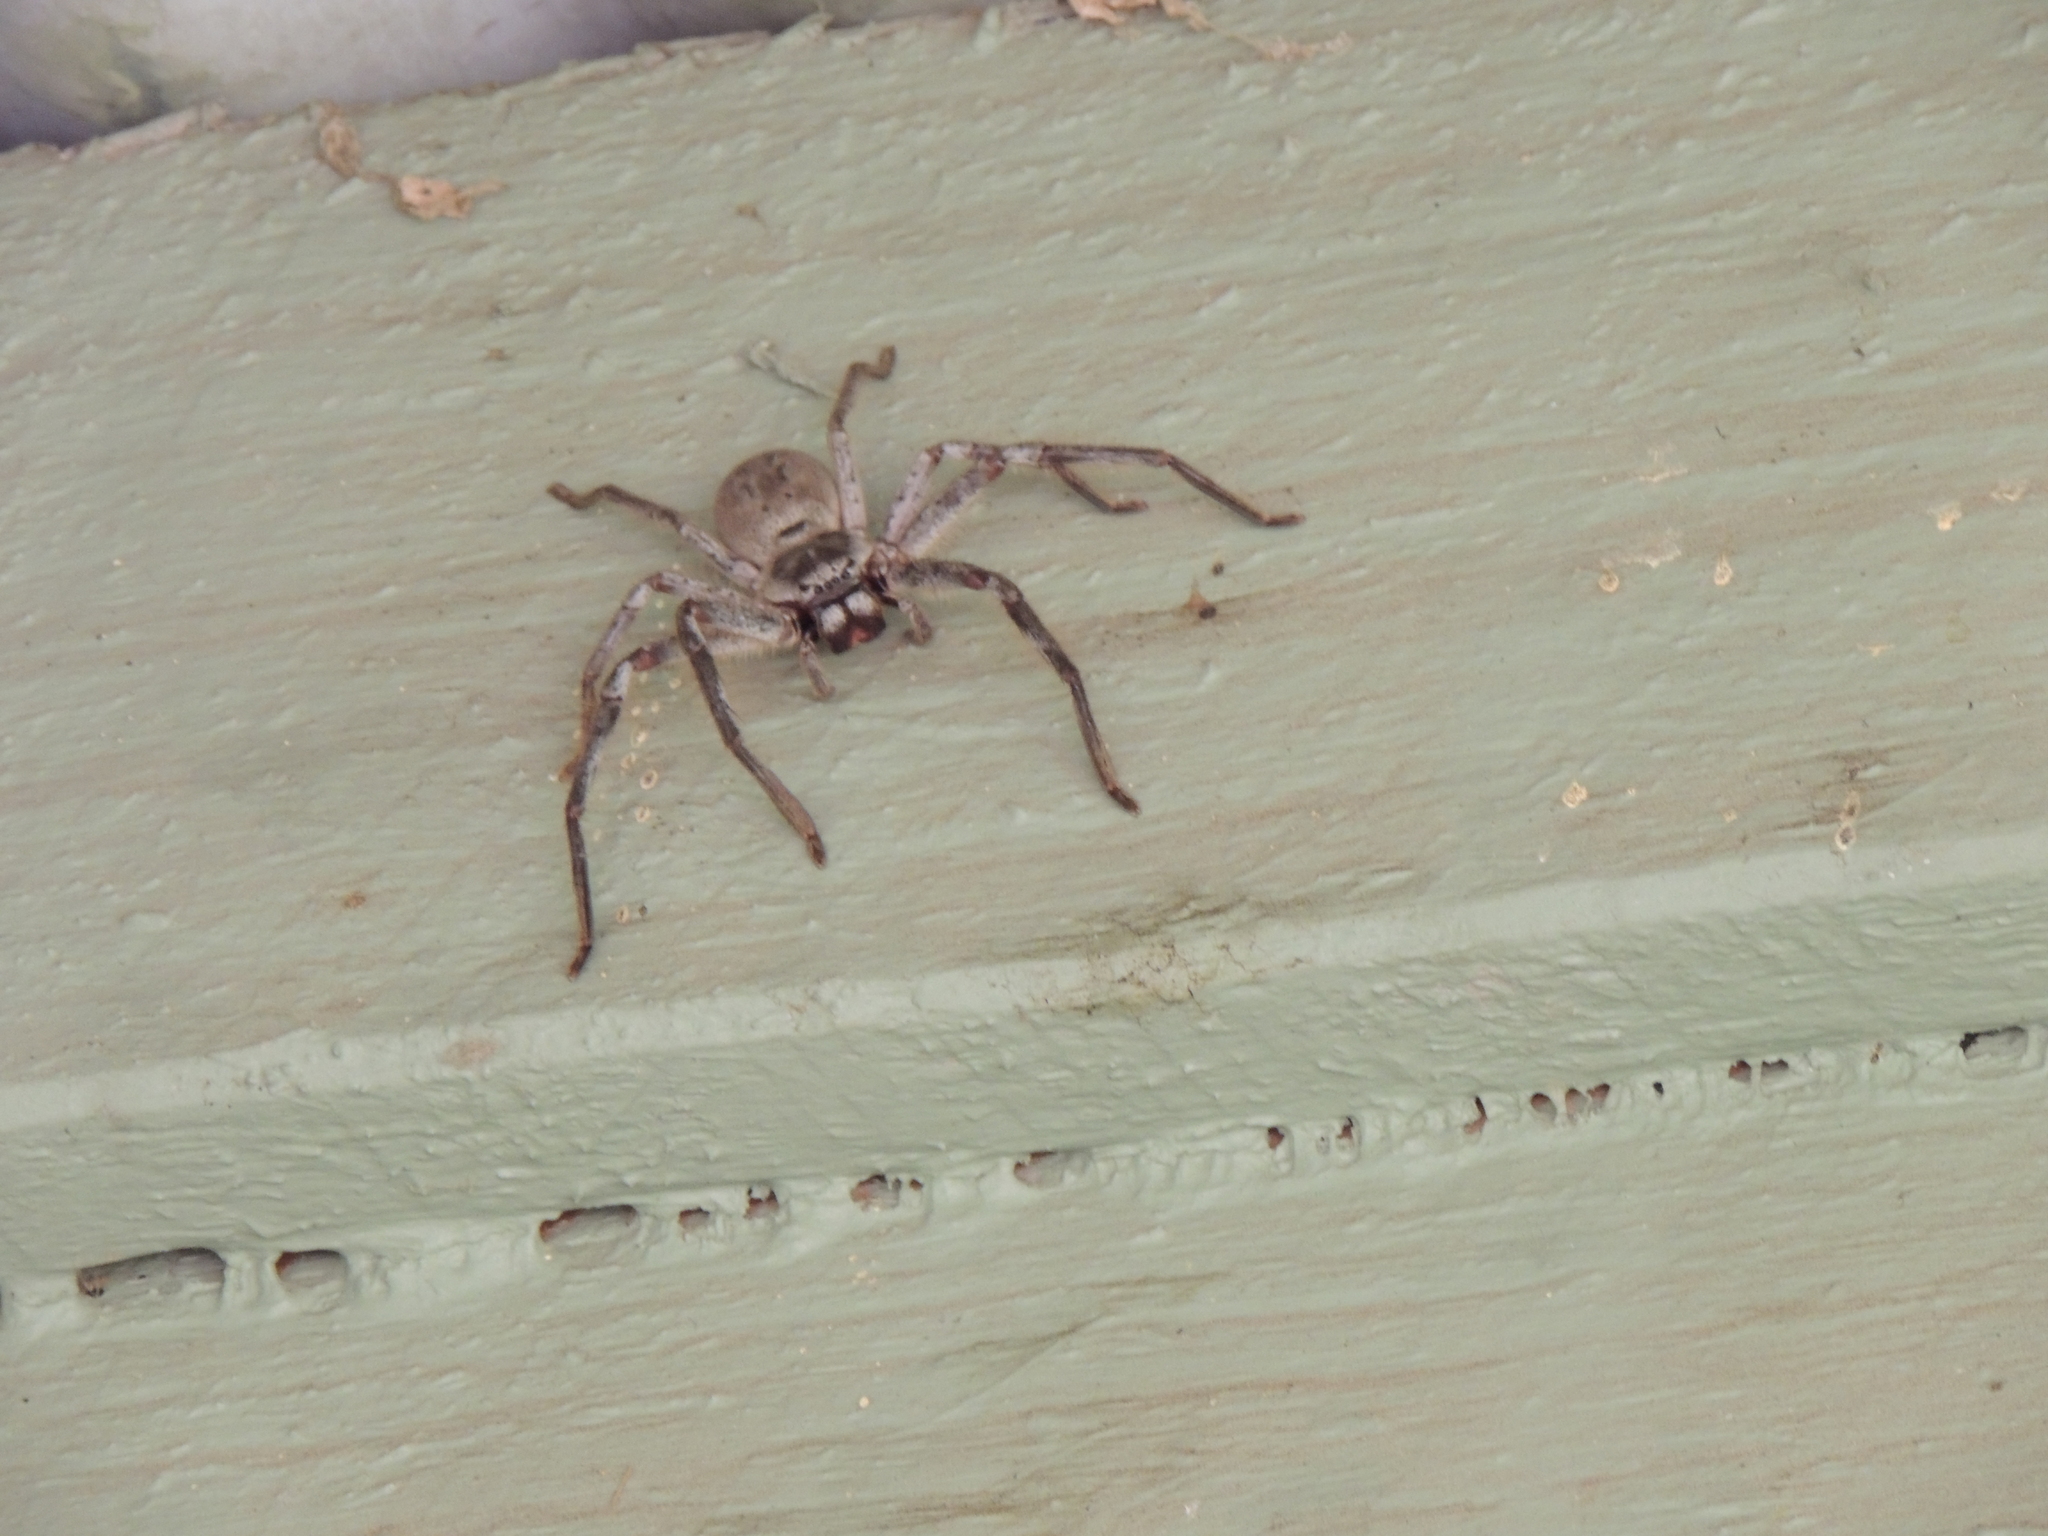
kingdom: Animalia
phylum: Arthropoda
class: Arachnida
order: Araneae
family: Sparassidae
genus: Isopeda
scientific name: Isopeda canberrana
